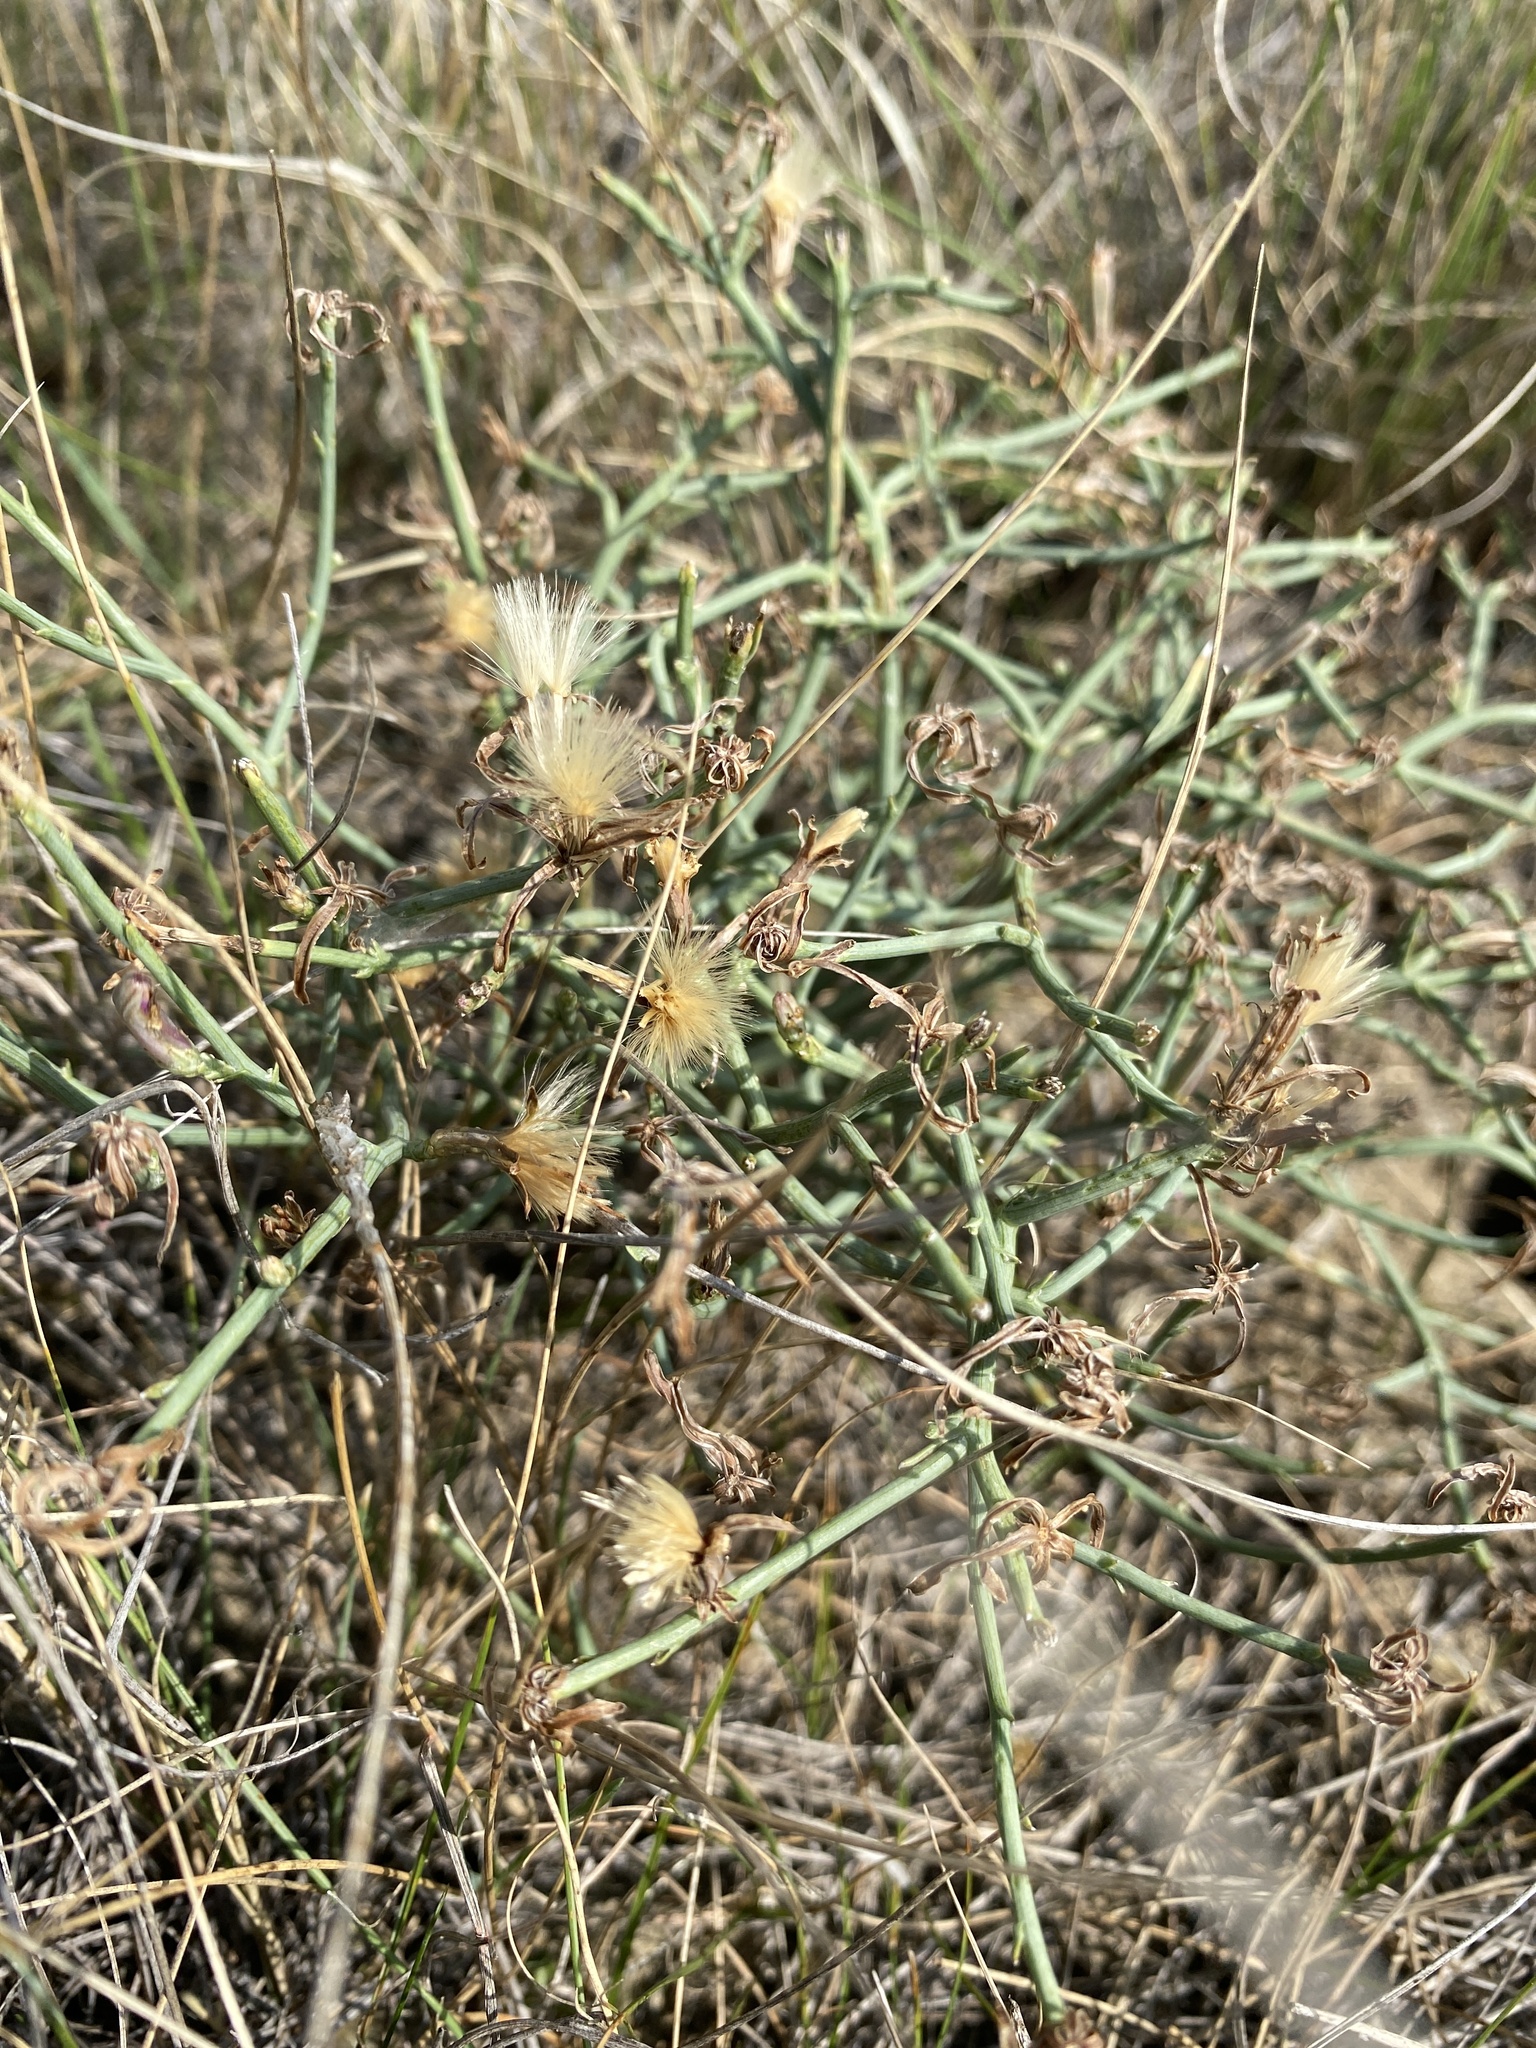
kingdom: Plantae
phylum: Tracheophyta
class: Magnoliopsida
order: Asterales
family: Asteraceae
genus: Lygodesmia
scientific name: Lygodesmia juncea
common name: Common skeletonweed
